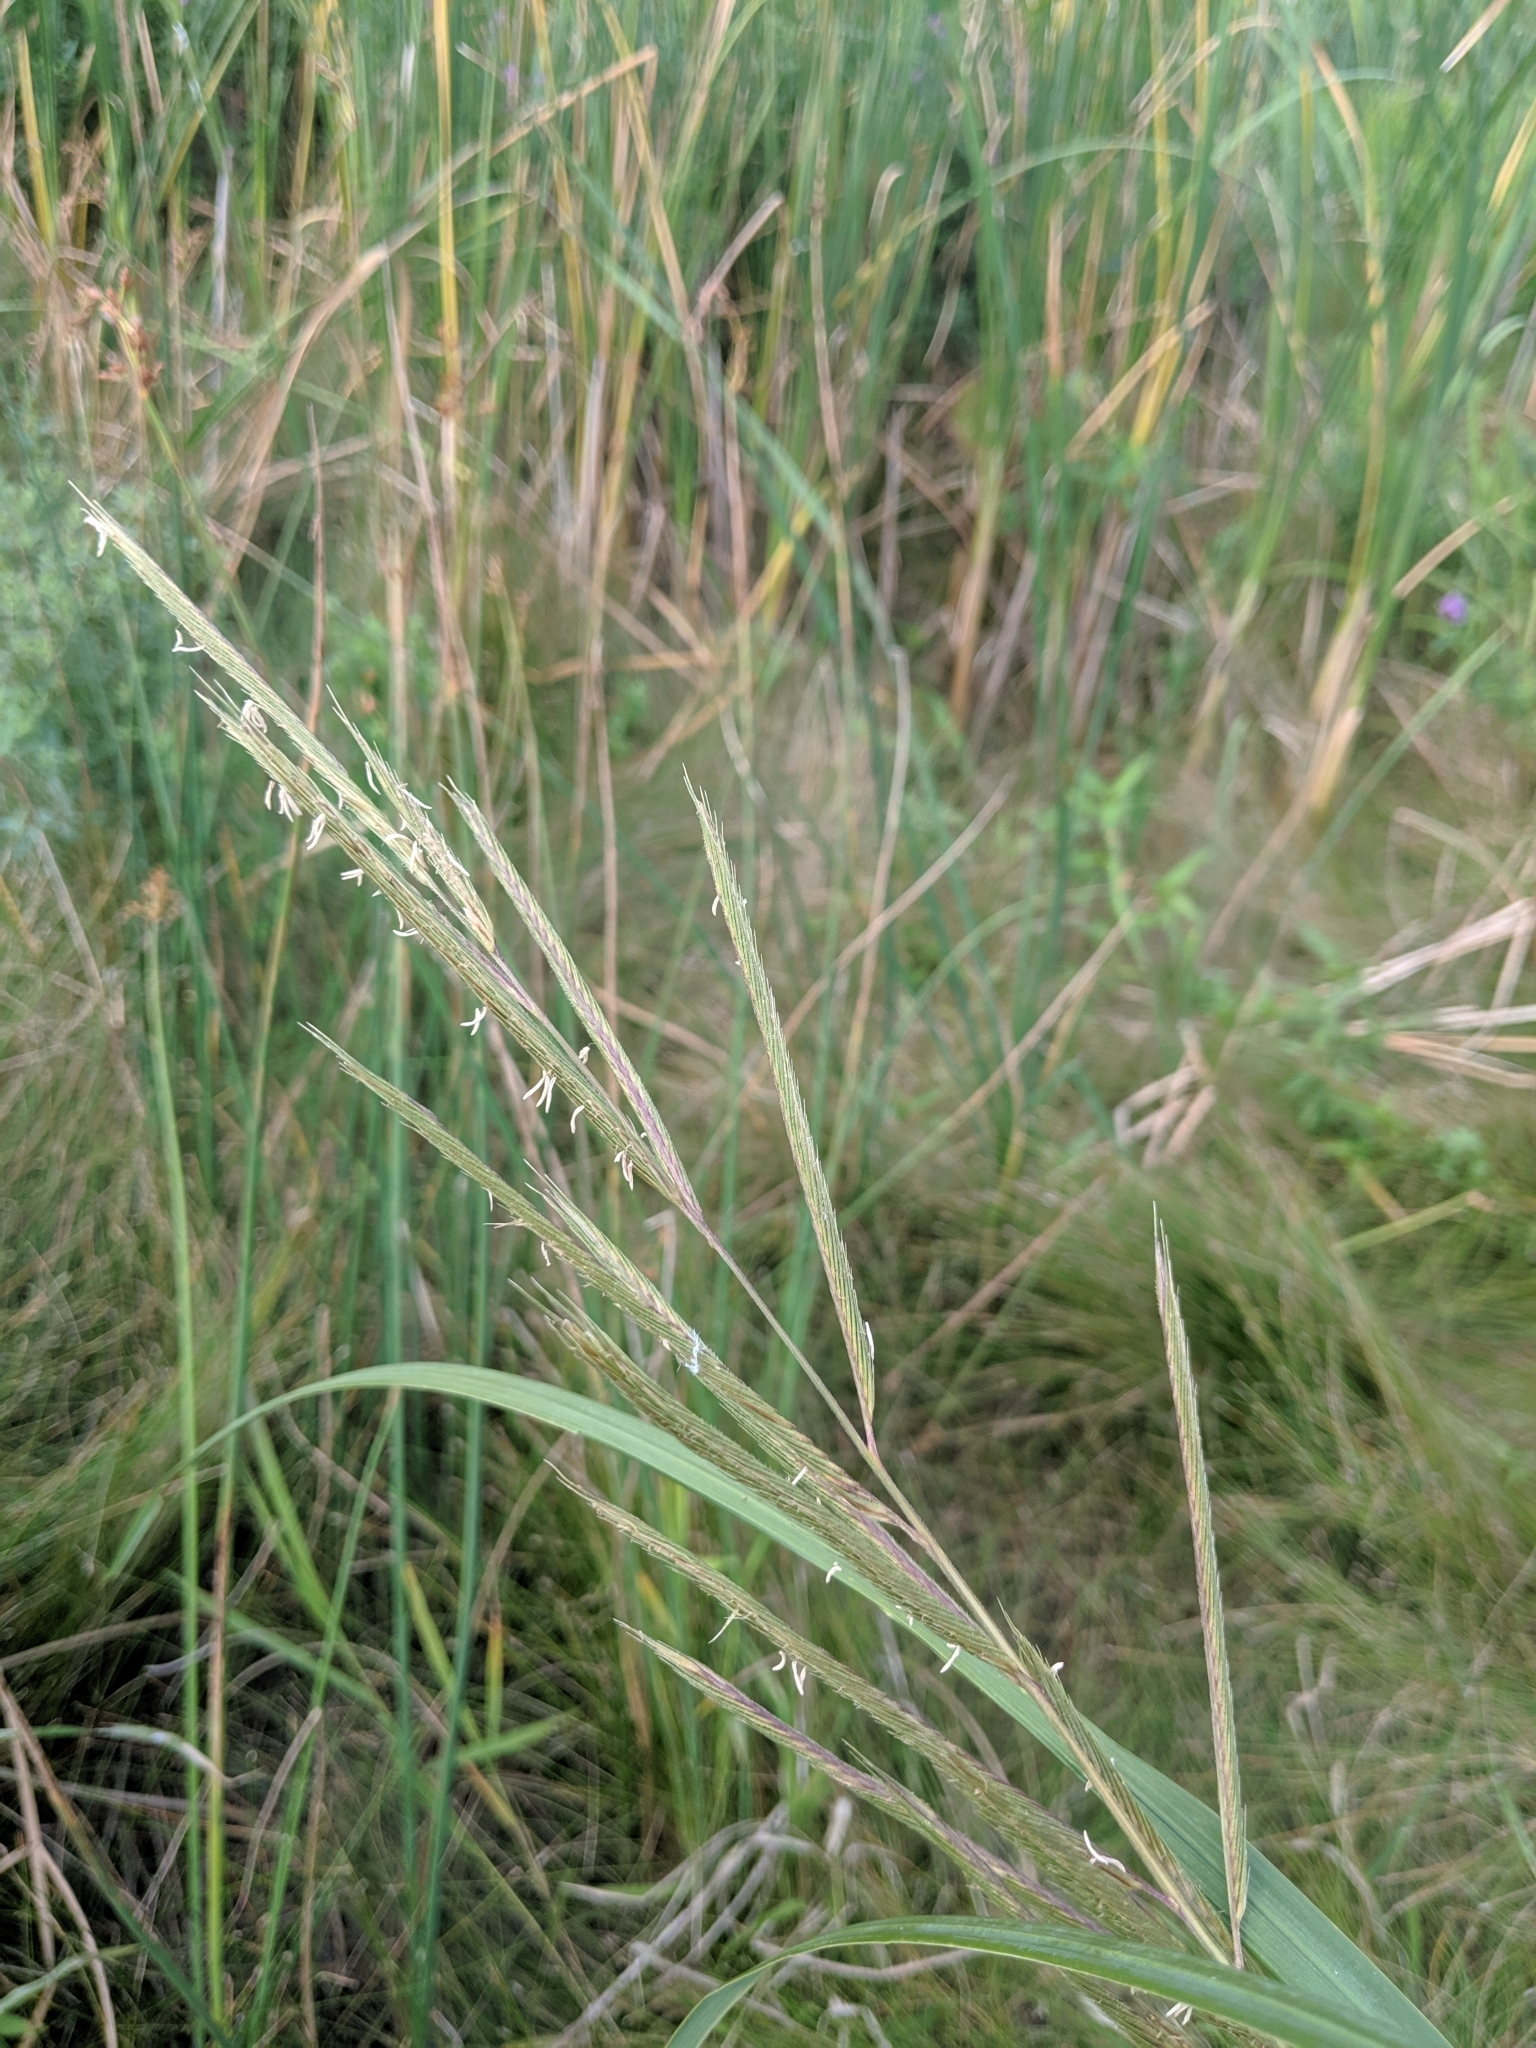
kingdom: Plantae
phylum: Tracheophyta
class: Liliopsida
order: Poales
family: Poaceae
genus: Sporobolus
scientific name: Sporobolus michauxianus
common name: Freshwater cordgrass
